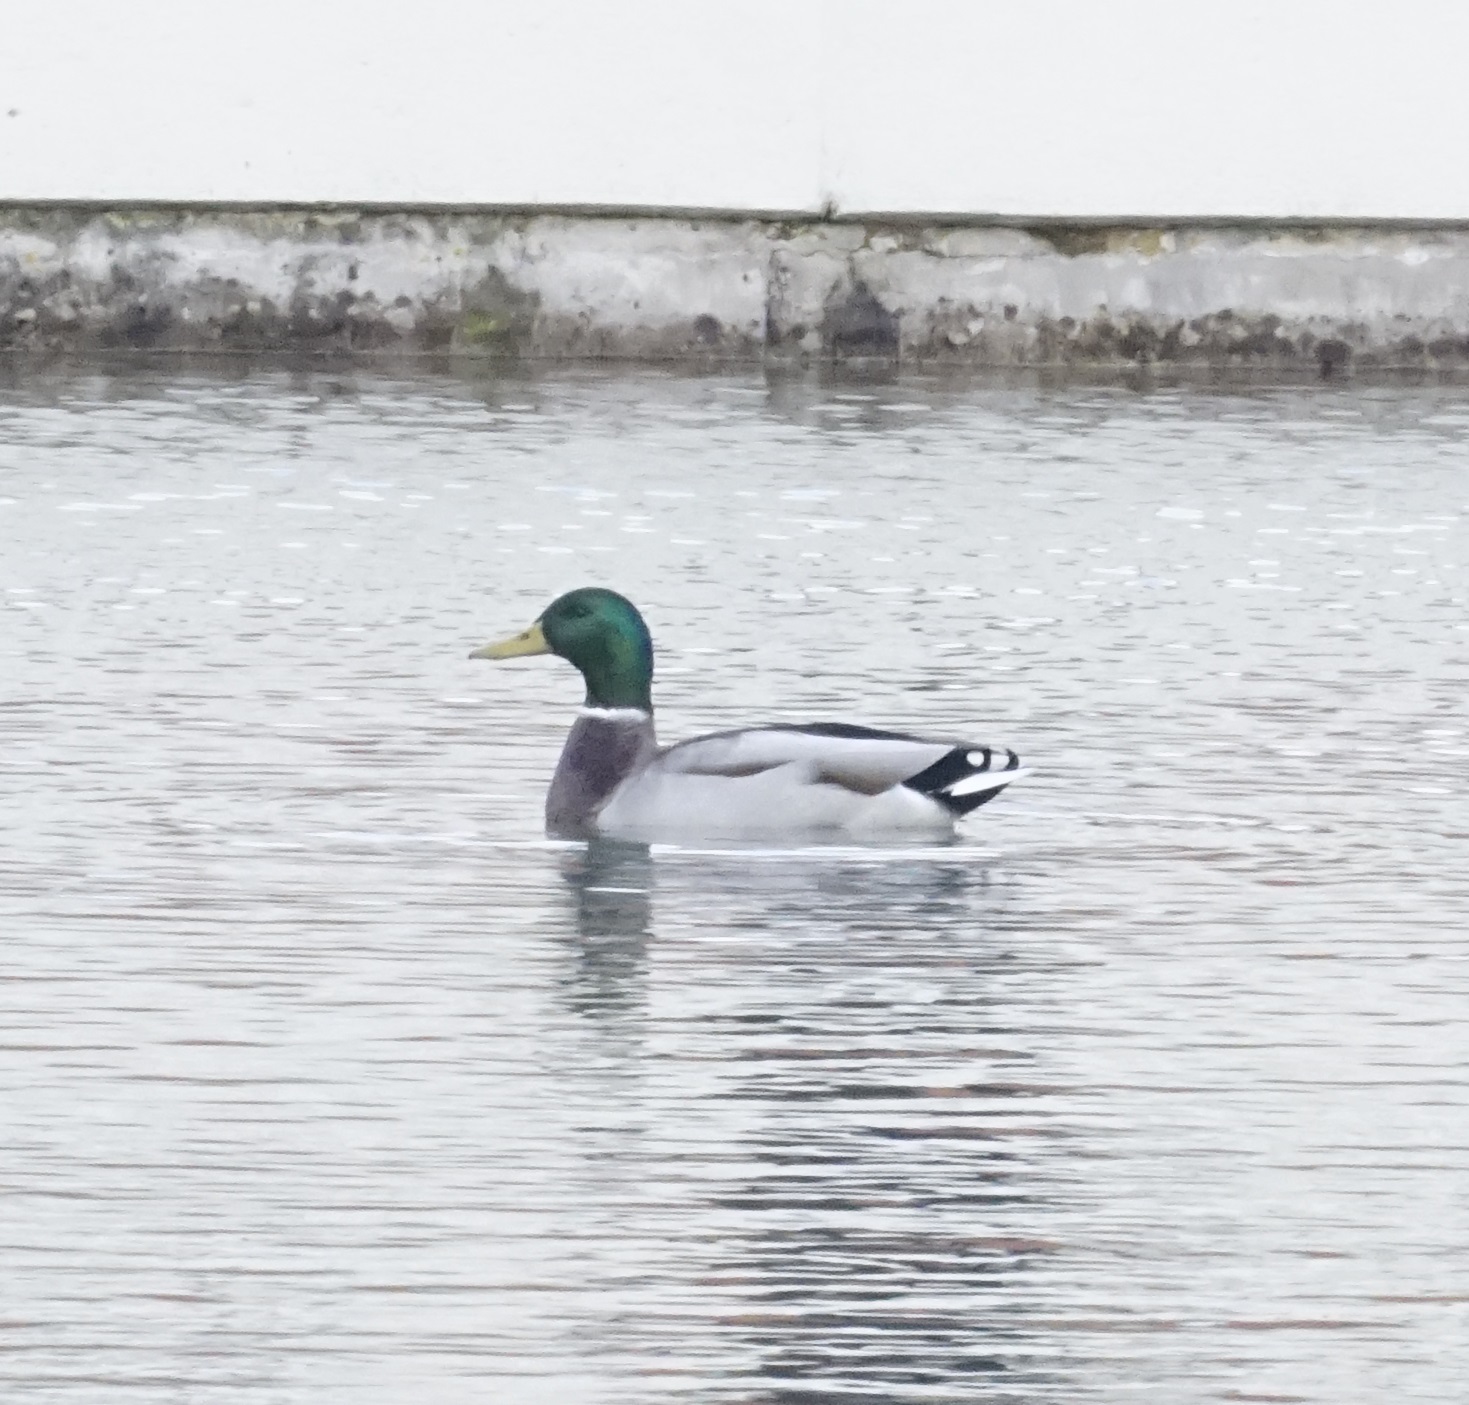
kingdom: Animalia
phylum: Chordata
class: Aves
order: Anseriformes
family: Anatidae
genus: Anas
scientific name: Anas platyrhynchos
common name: Mallard
